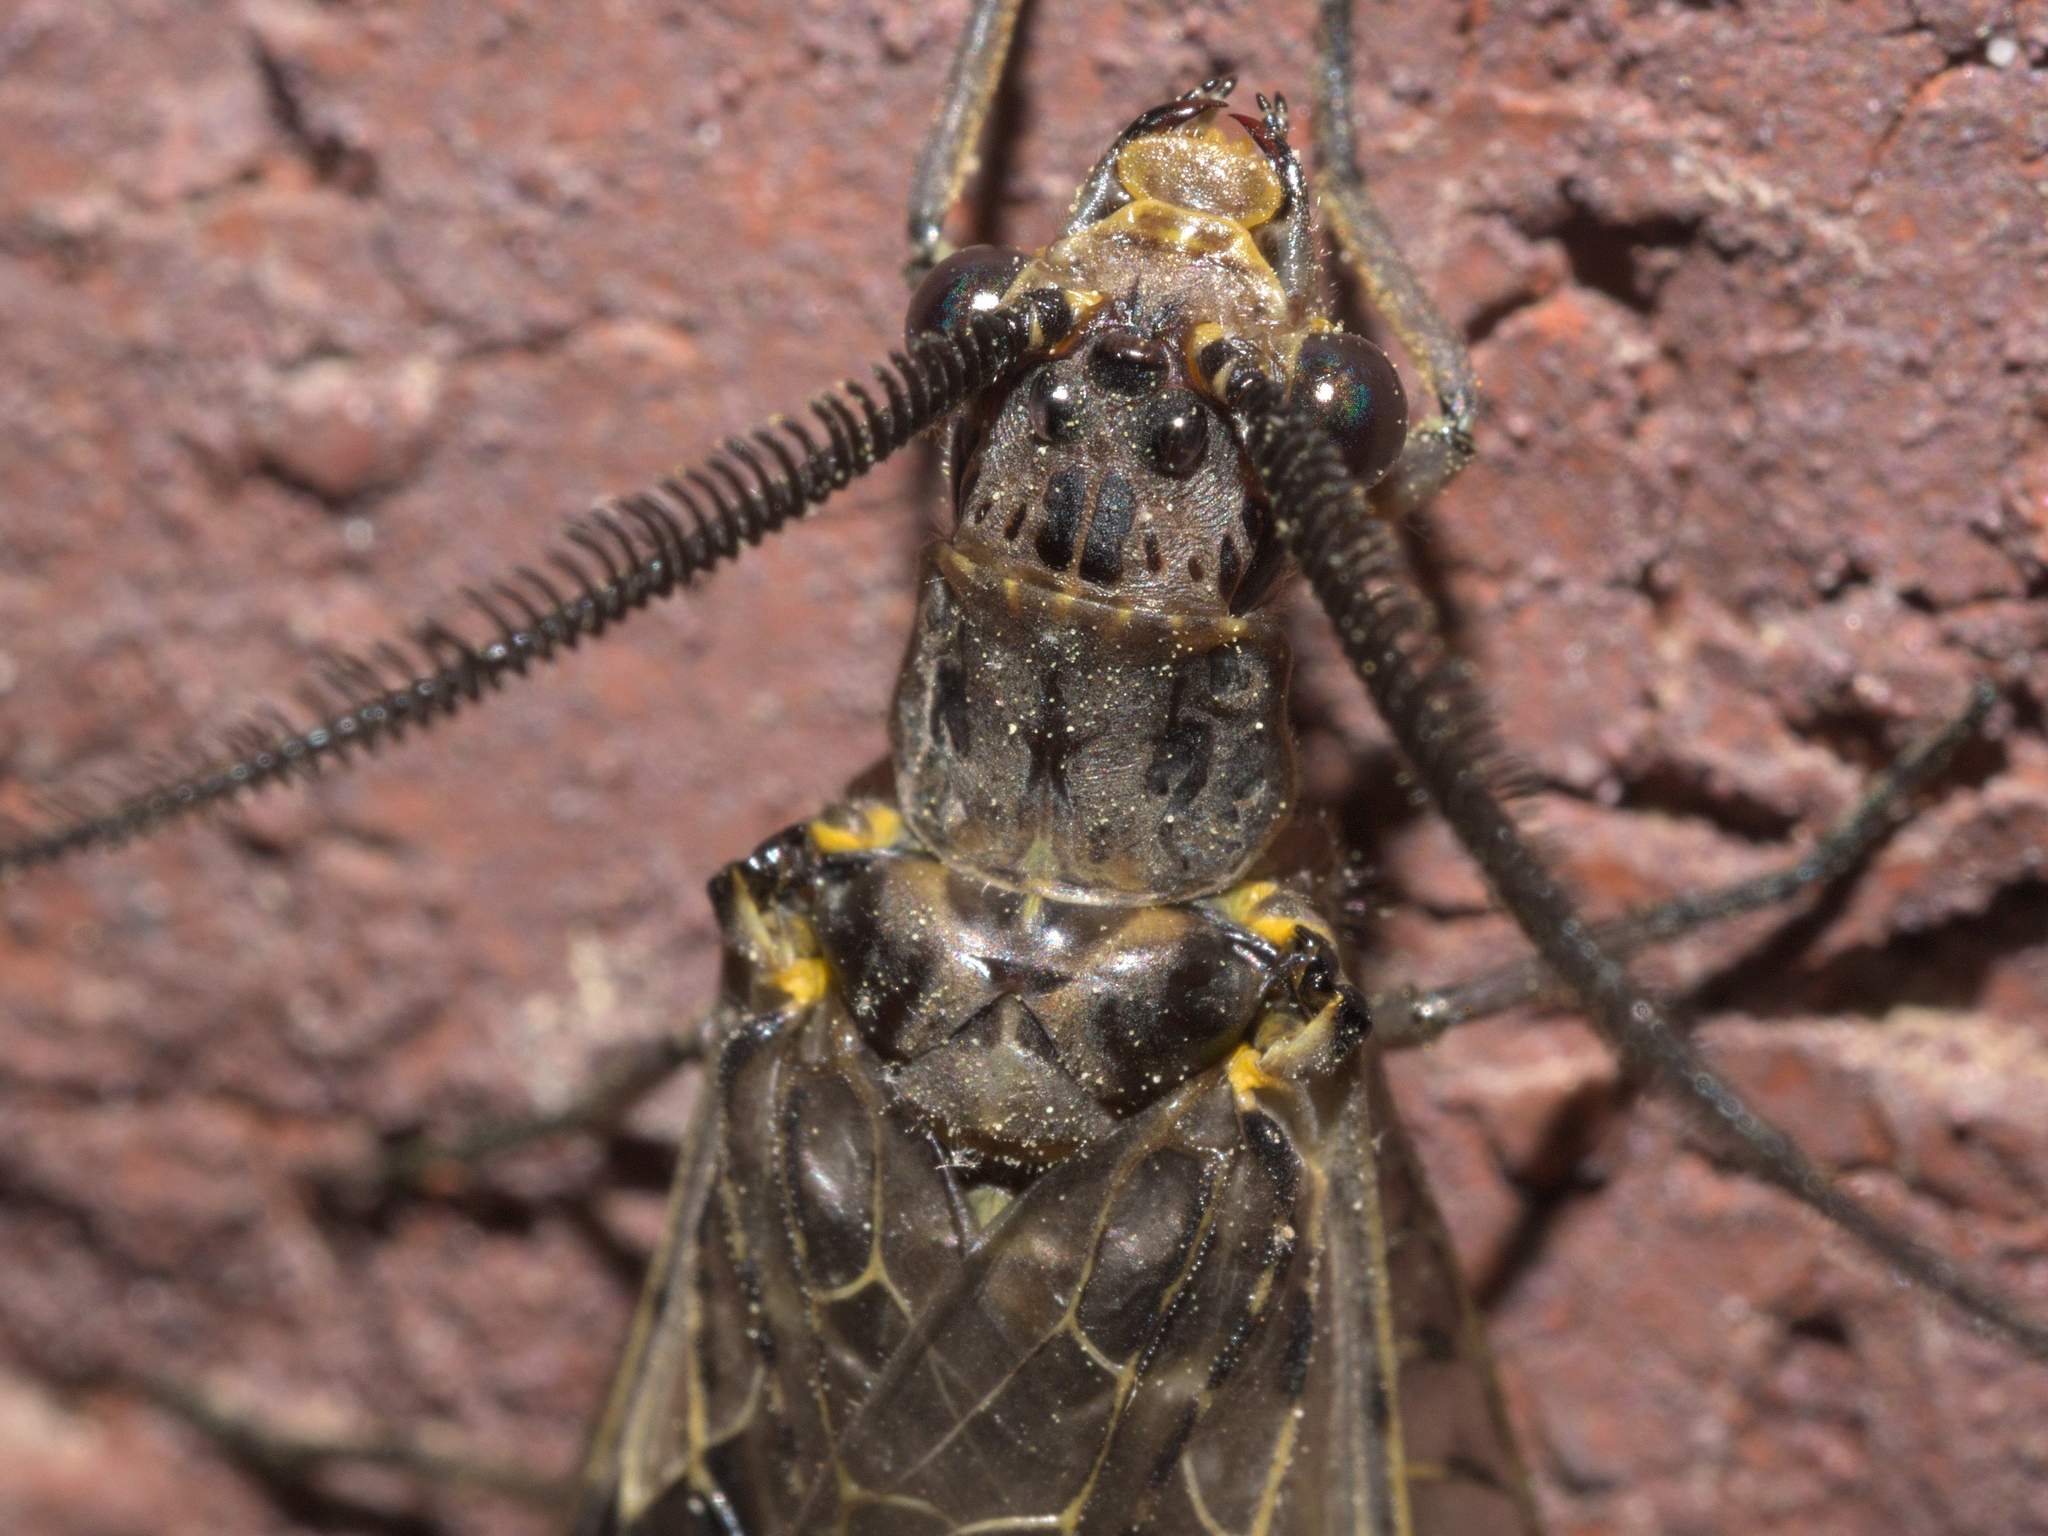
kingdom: Animalia
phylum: Arthropoda
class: Insecta
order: Megaloptera
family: Corydalidae
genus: Chauliodes
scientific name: Chauliodes rastricornis
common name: Spring fishfly
